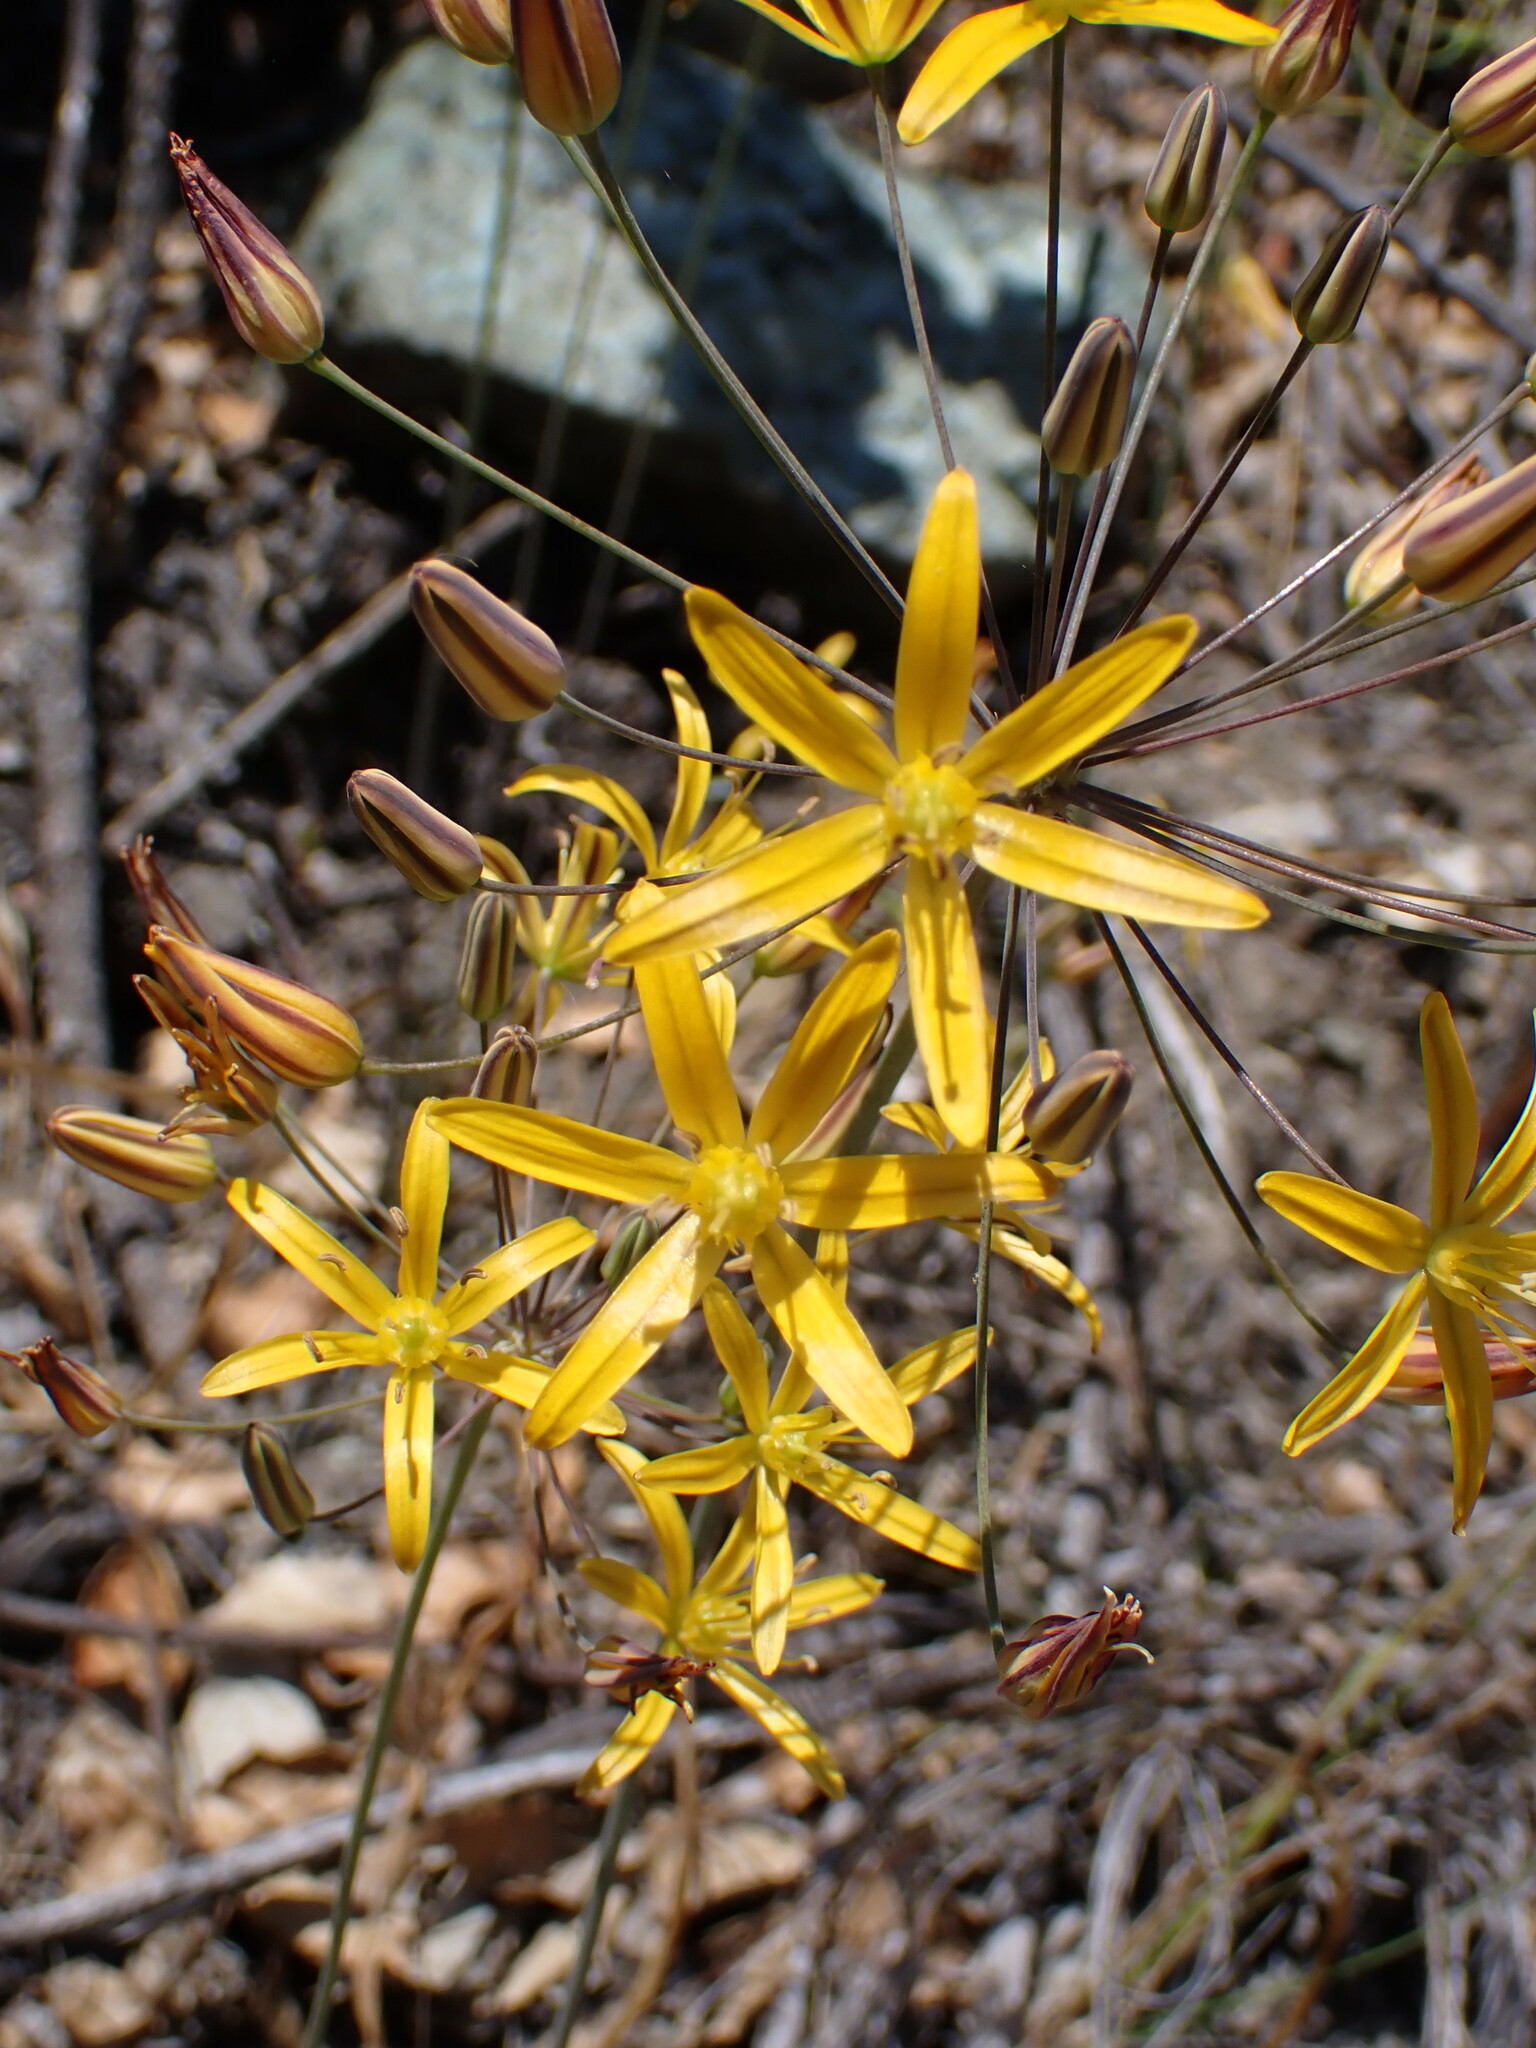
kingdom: Plantae
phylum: Tracheophyta
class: Liliopsida
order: Asparagales
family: Asparagaceae
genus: Bloomeria
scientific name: Bloomeria crocea
